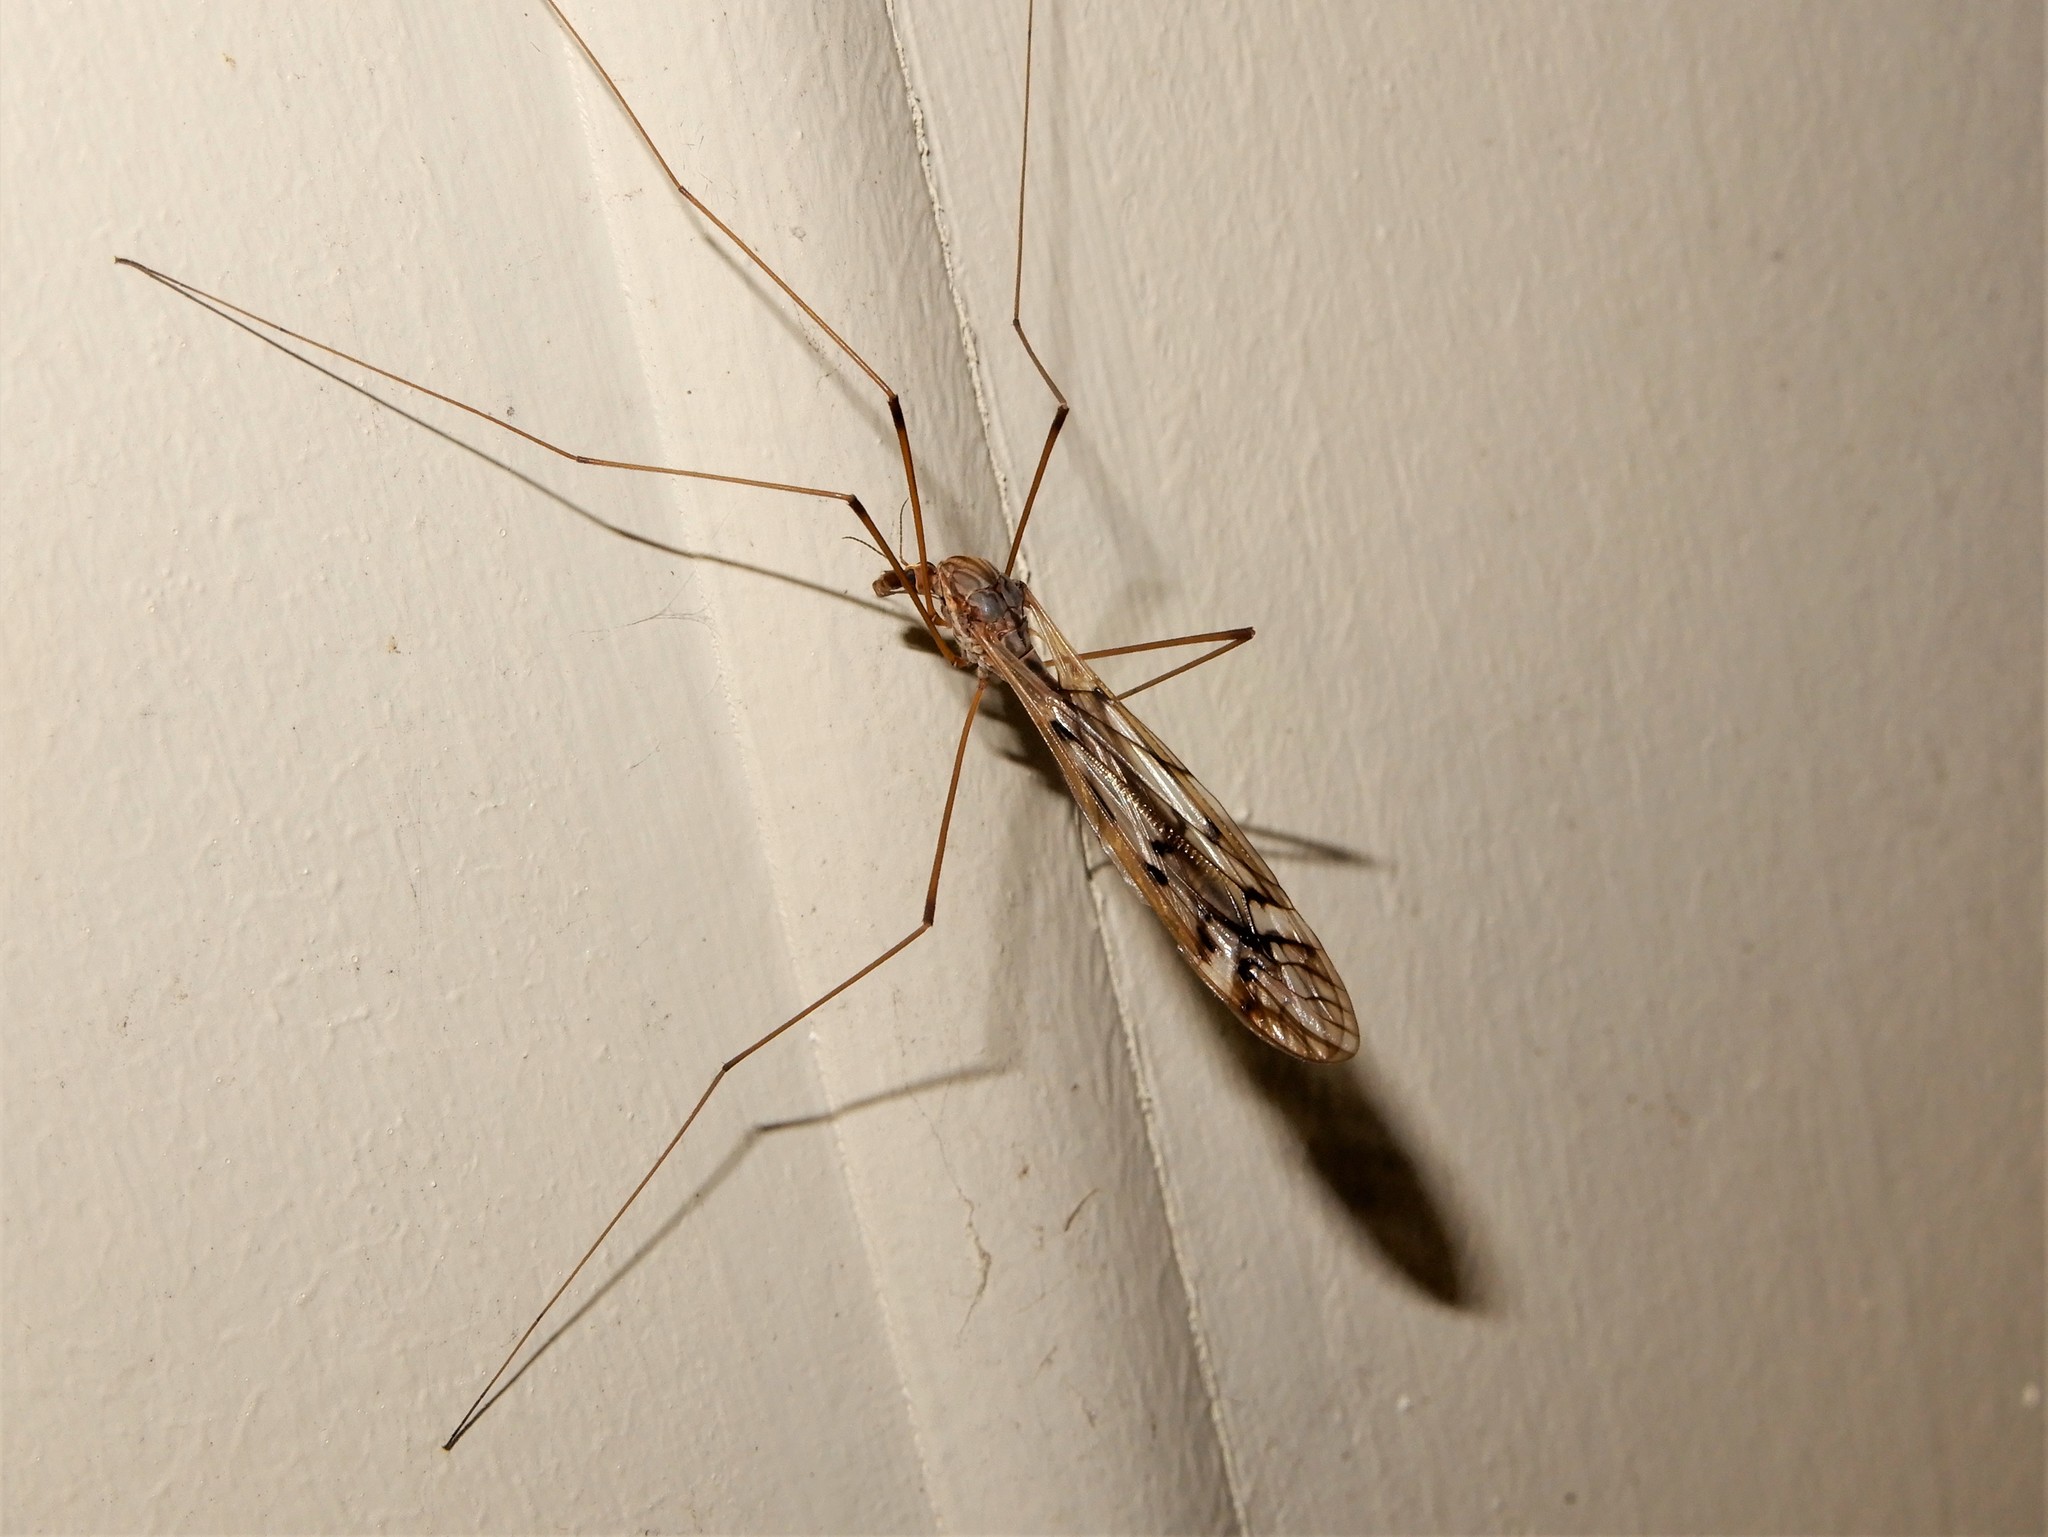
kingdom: Animalia
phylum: Arthropoda
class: Insecta
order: Diptera
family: Tipulidae
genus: Zelandotipula
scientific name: Zelandotipula novarae
